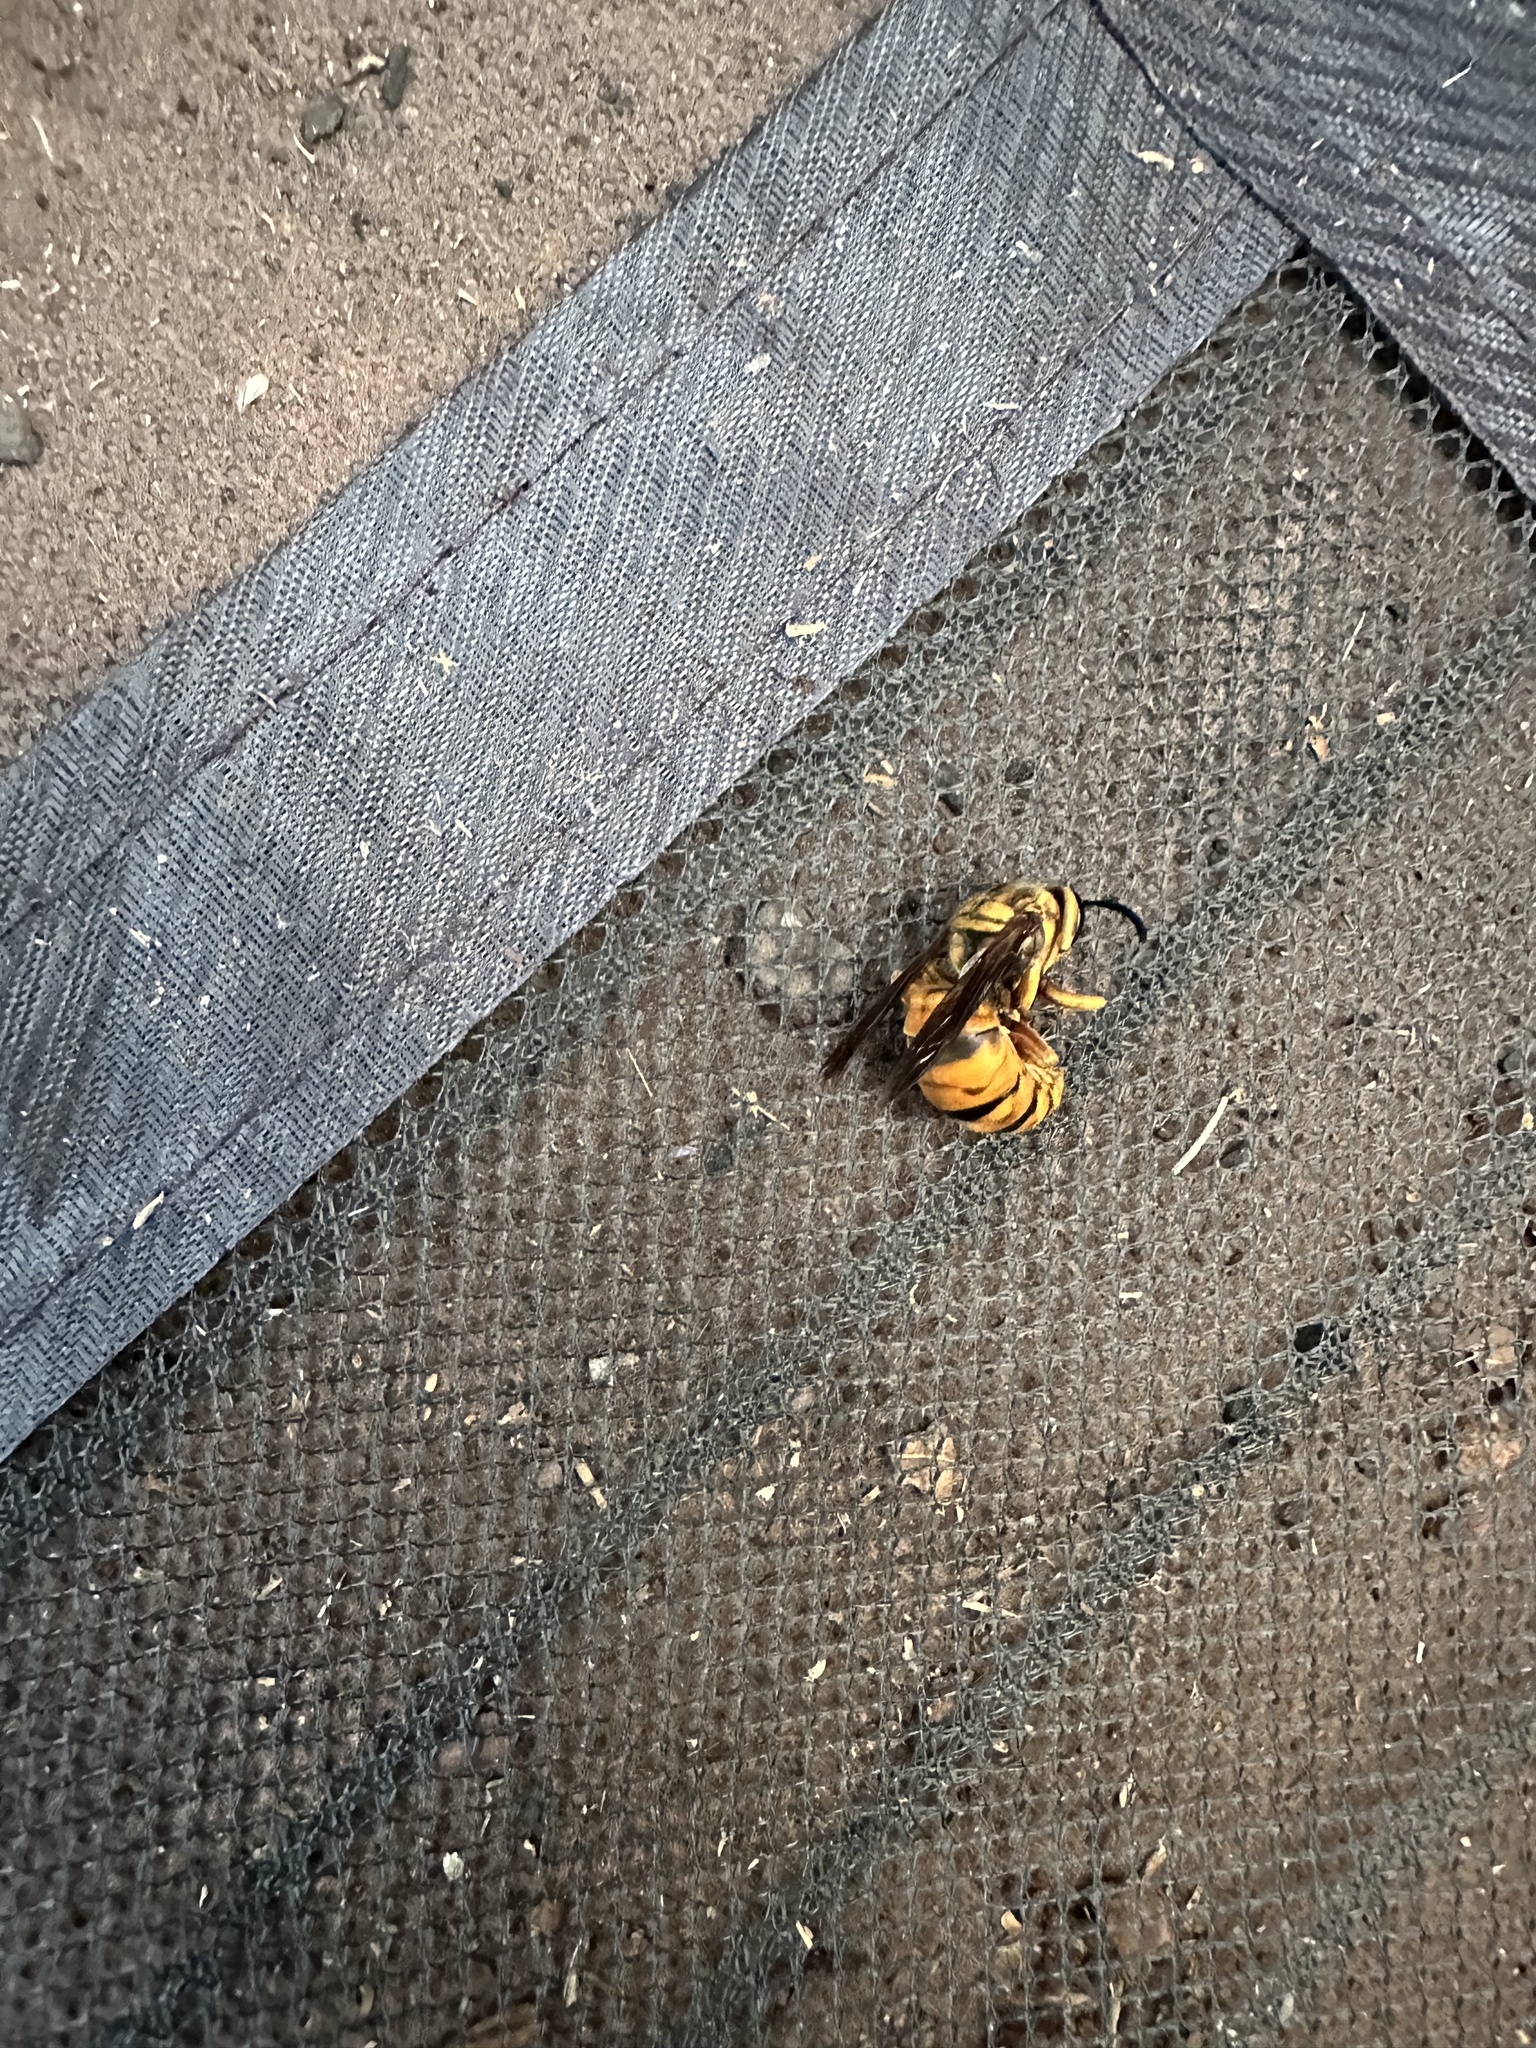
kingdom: Animalia
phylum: Arthropoda
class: Insecta
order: Hymenoptera
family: Vespidae
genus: Vespula
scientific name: Vespula squamosa
